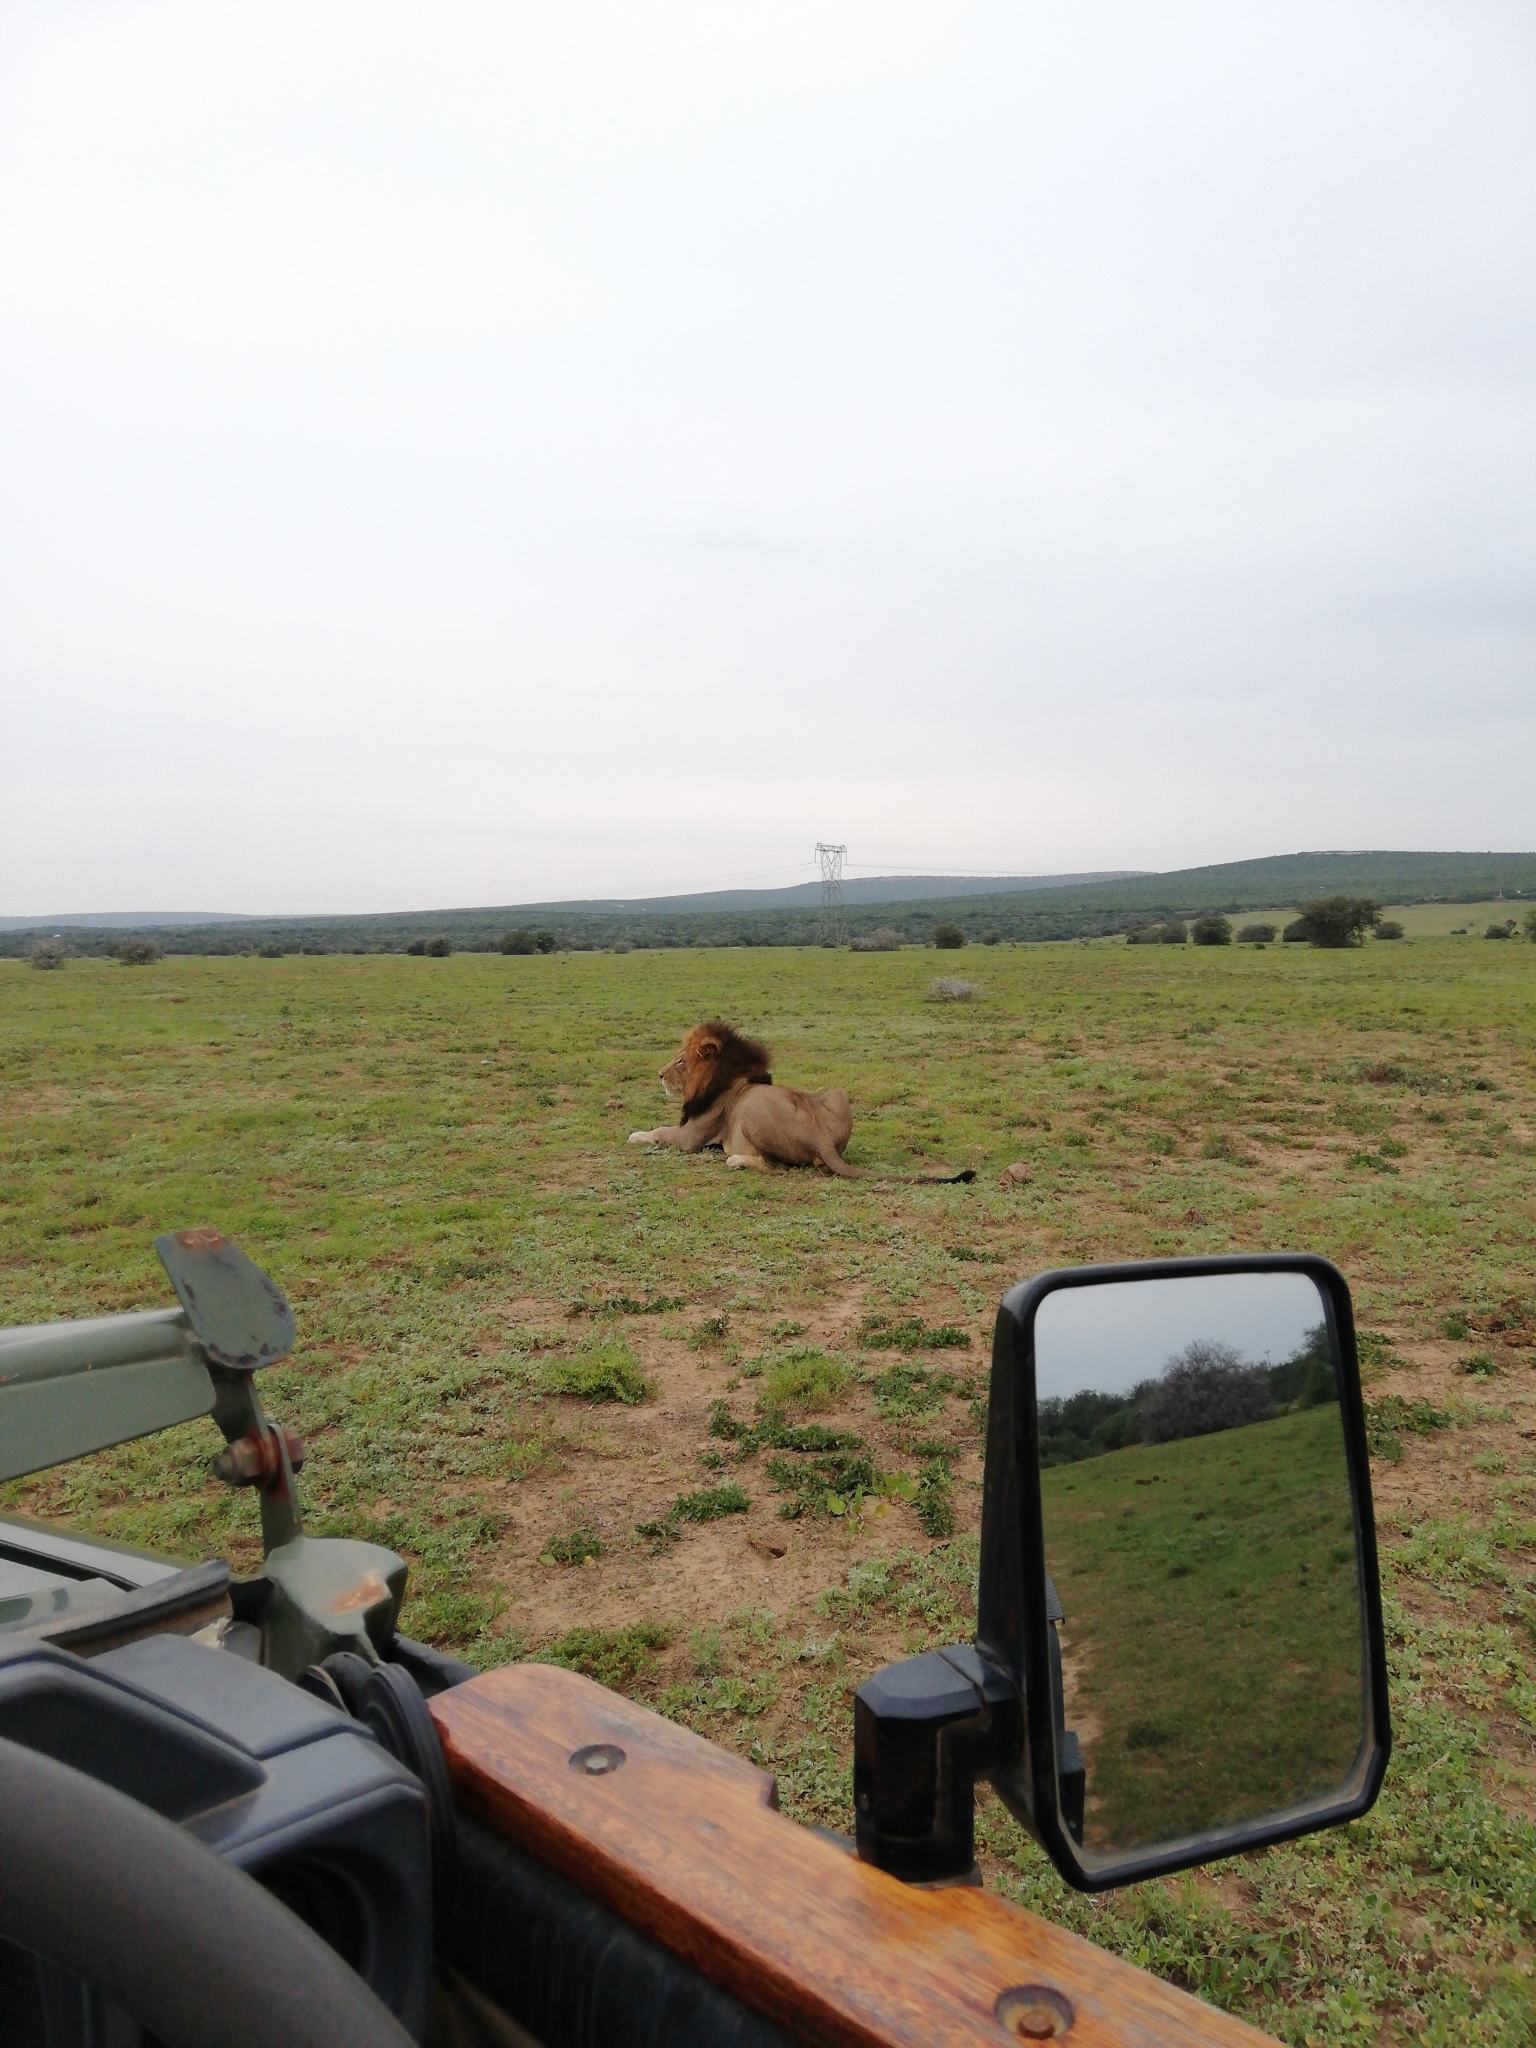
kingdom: Animalia
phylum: Chordata
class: Mammalia
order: Carnivora
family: Felidae
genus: Panthera
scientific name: Panthera leo
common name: Lion
